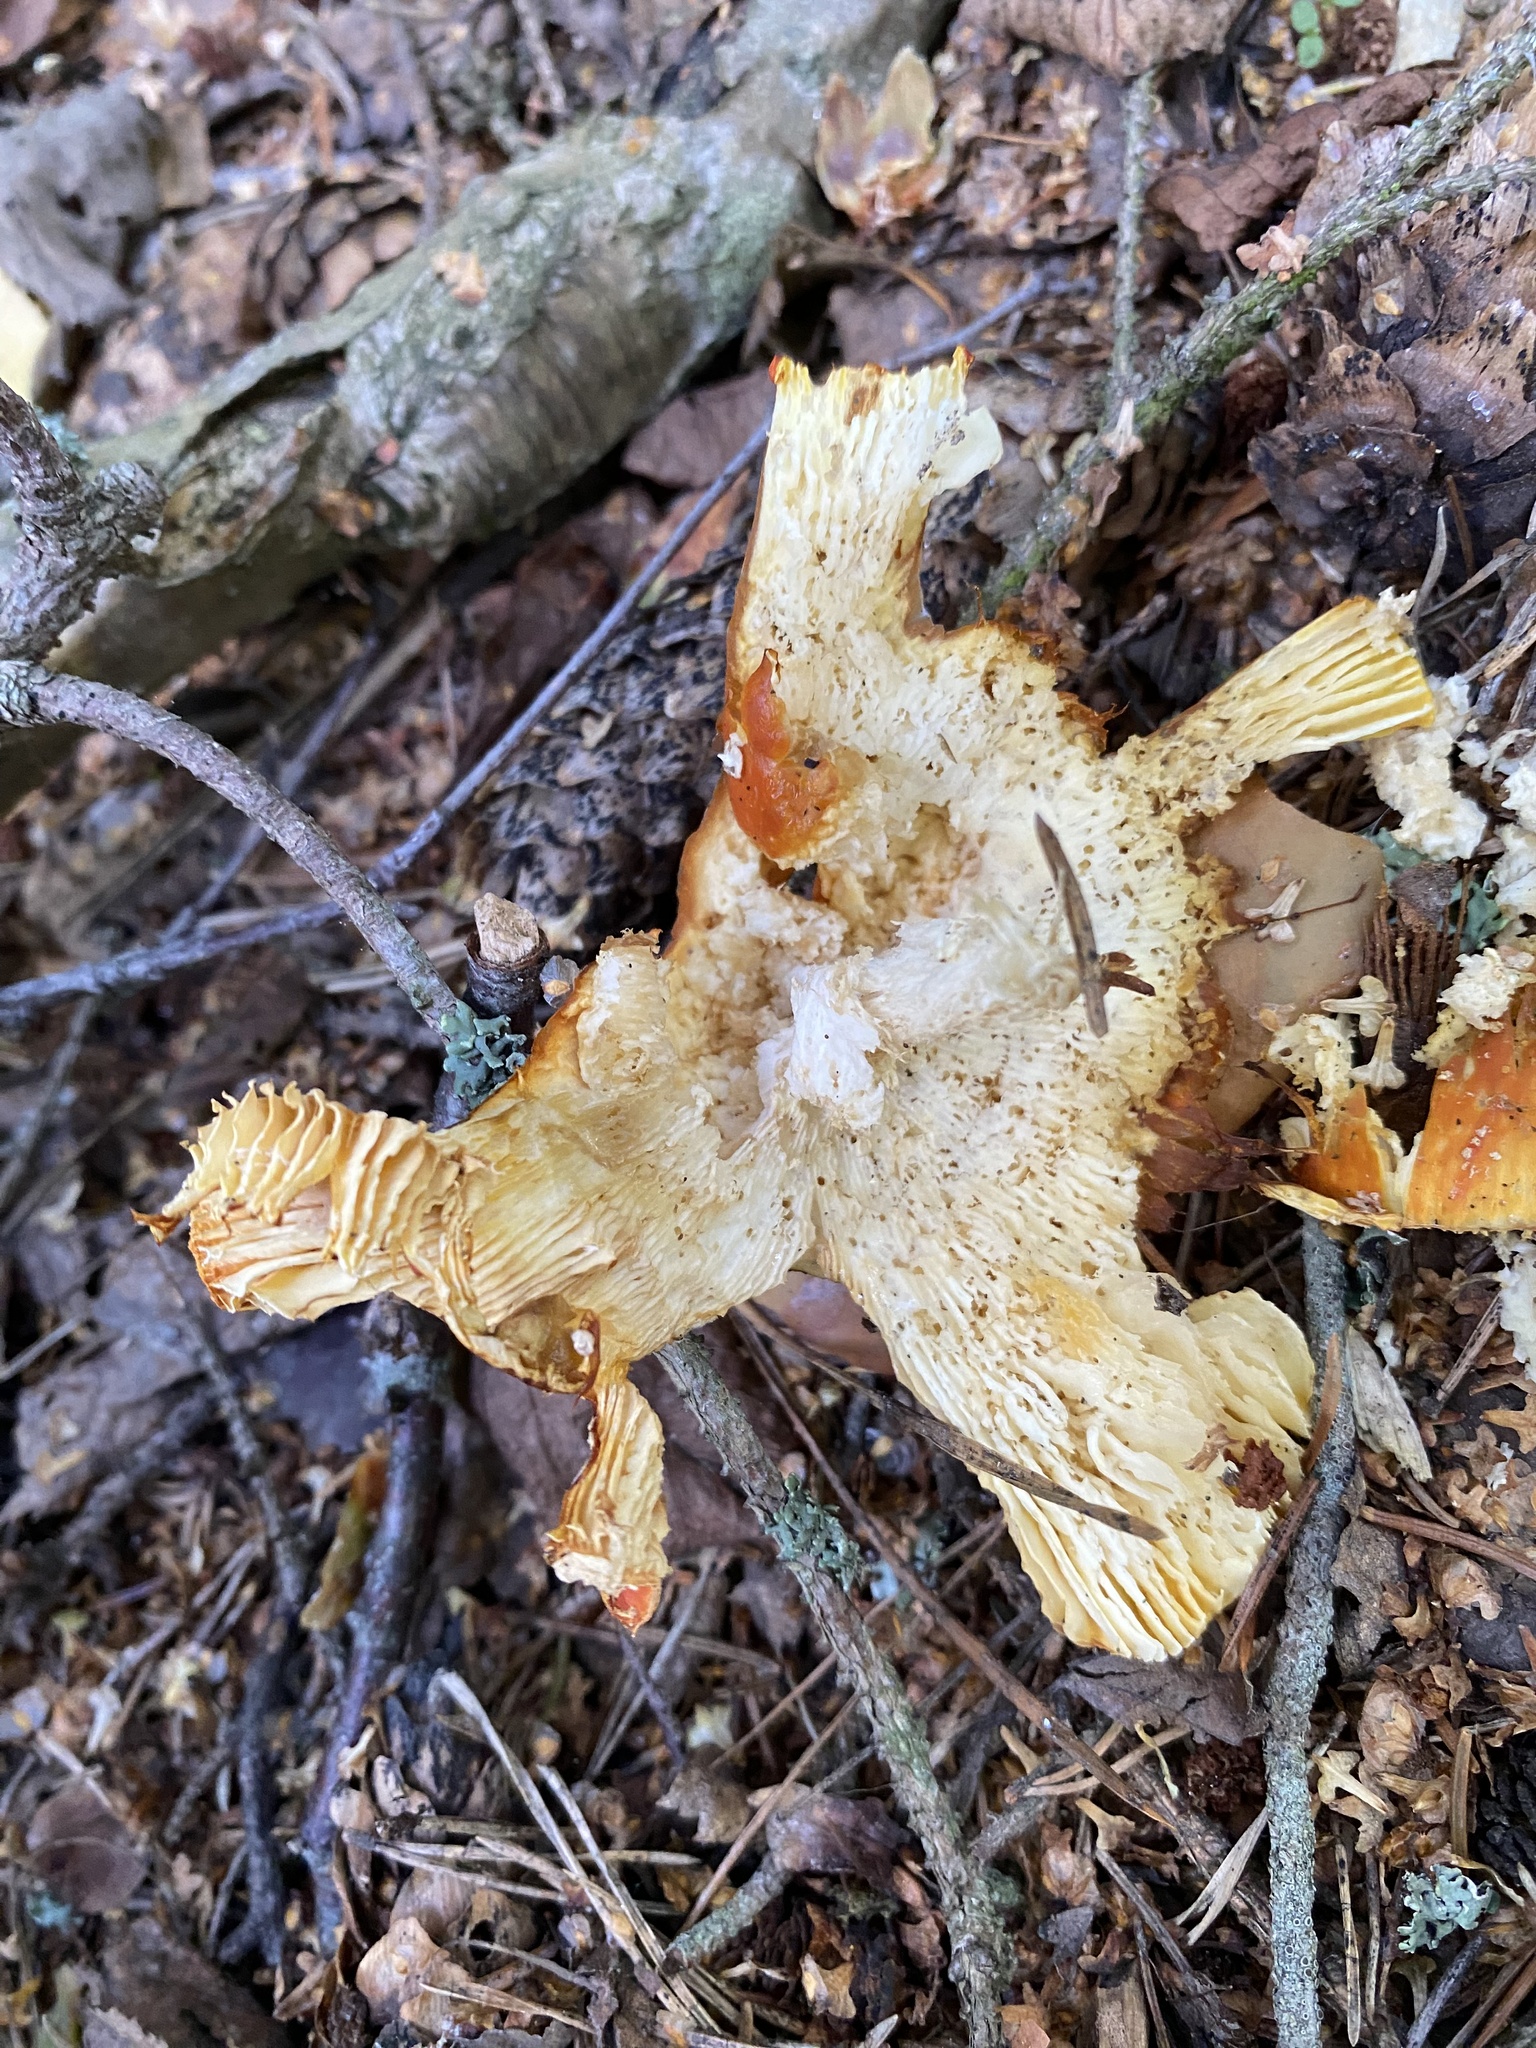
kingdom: Fungi
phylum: Basidiomycota
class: Agaricomycetes
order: Agaricales
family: Amanitaceae
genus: Amanita
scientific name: Amanita muscaria
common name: Fly agaric
